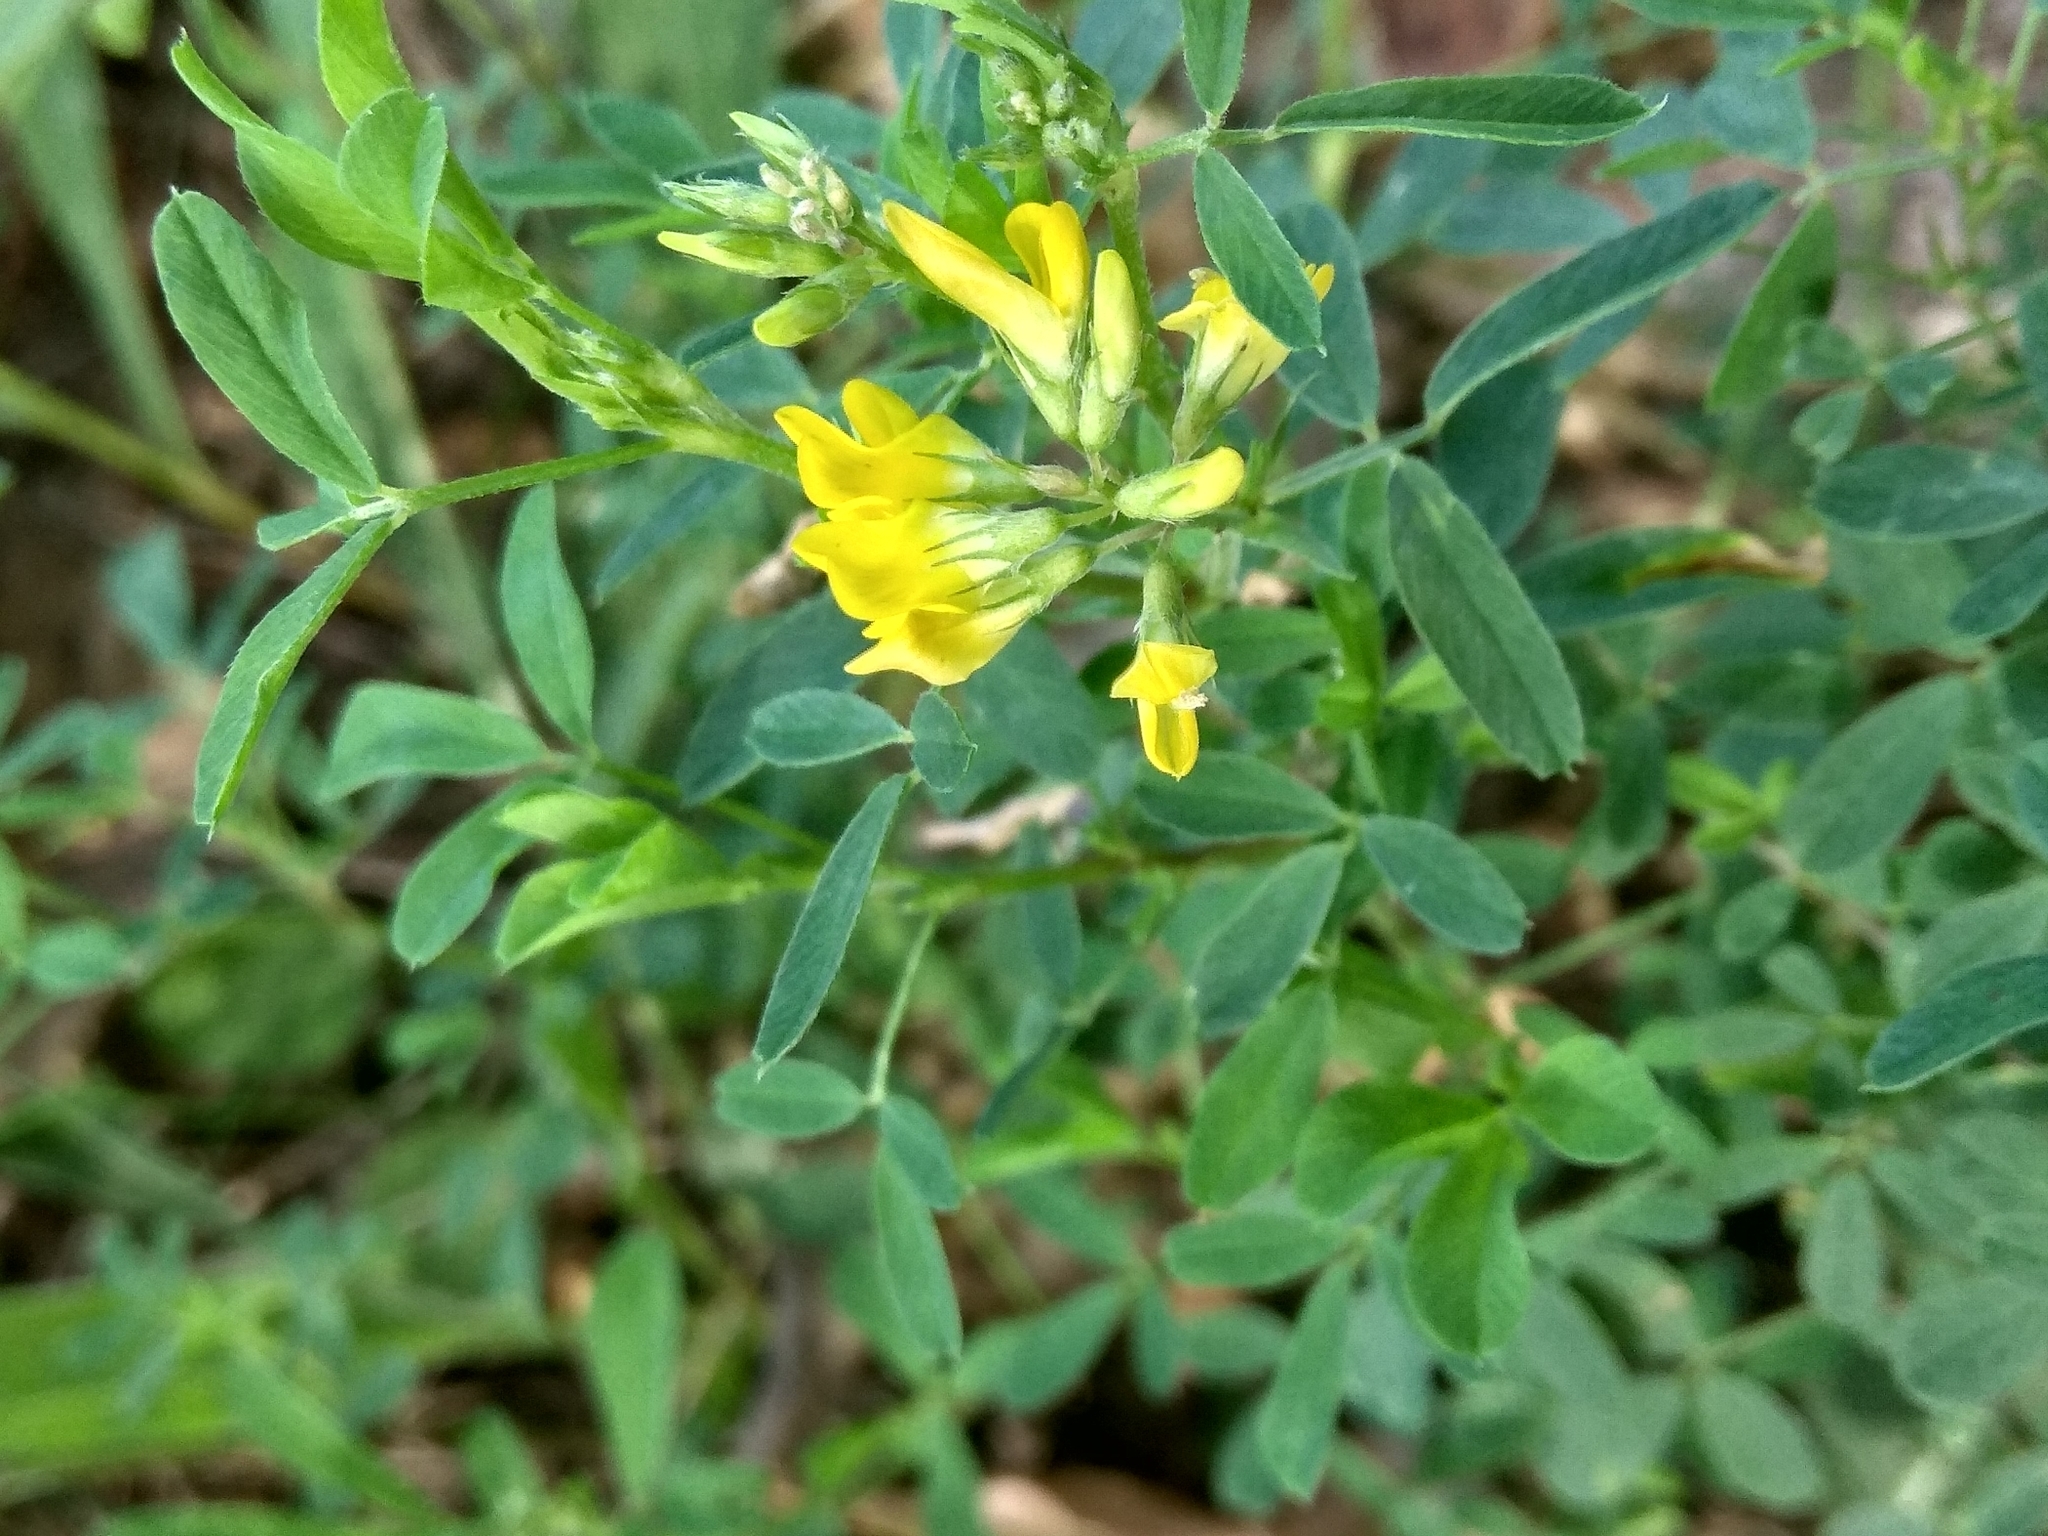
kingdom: Plantae
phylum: Tracheophyta
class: Magnoliopsida
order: Fabales
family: Fabaceae
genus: Medicago
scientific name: Medicago falcata
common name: Sickle medick
